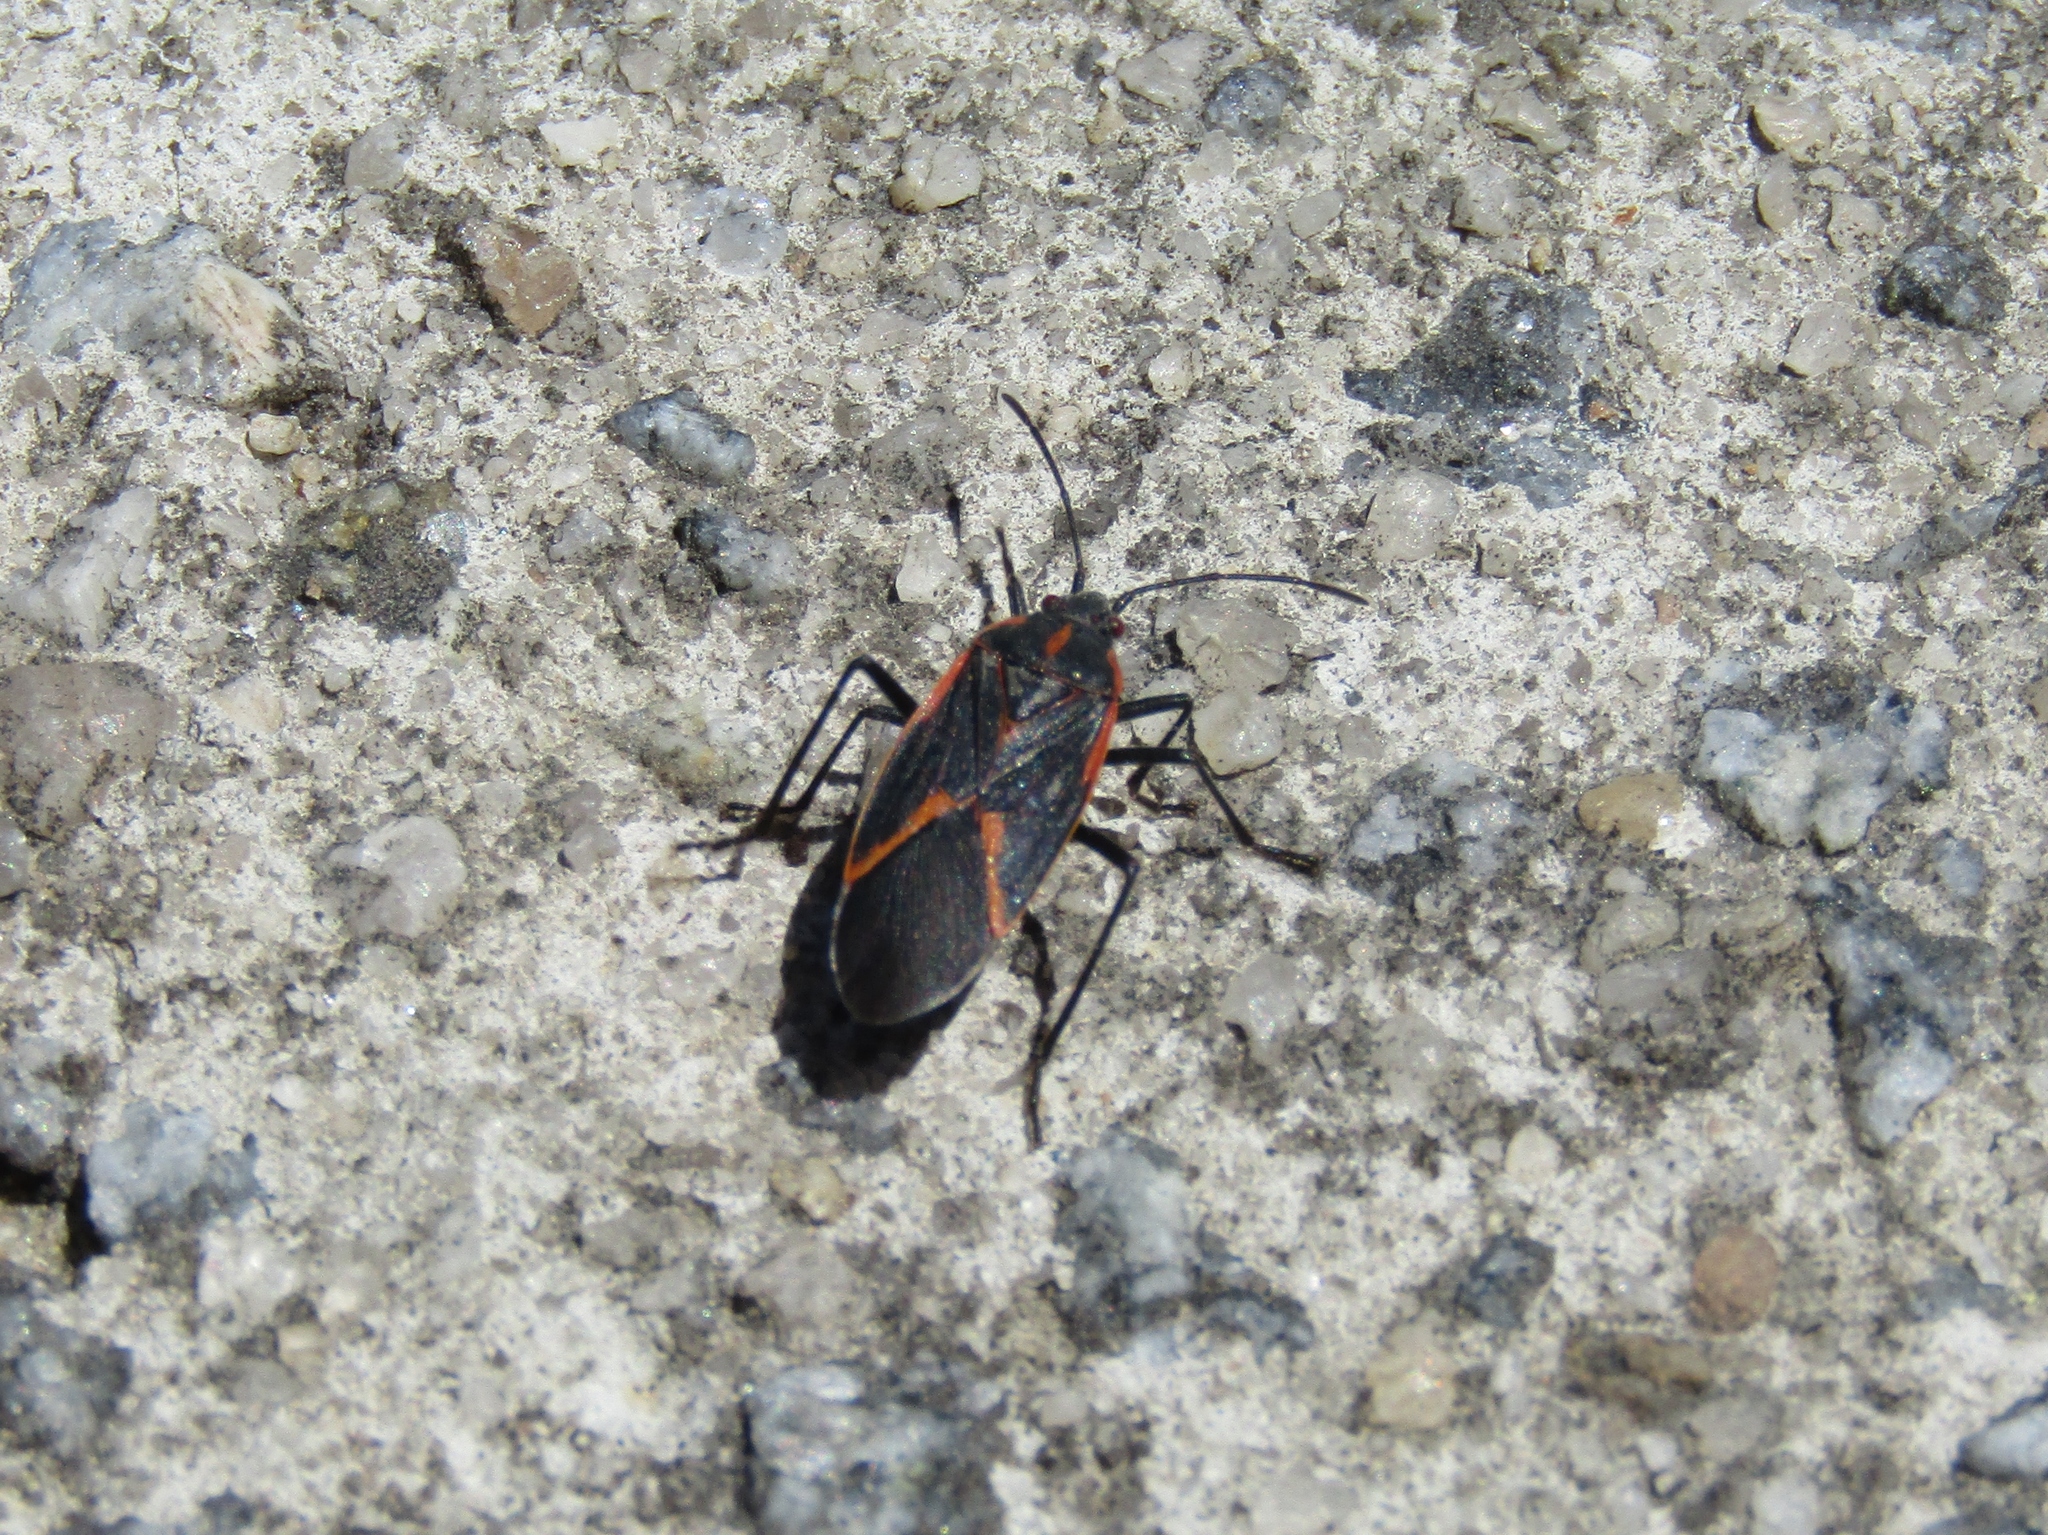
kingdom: Animalia
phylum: Arthropoda
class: Insecta
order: Hemiptera
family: Rhopalidae
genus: Boisea
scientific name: Boisea trivittata
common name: Boxelder bug
